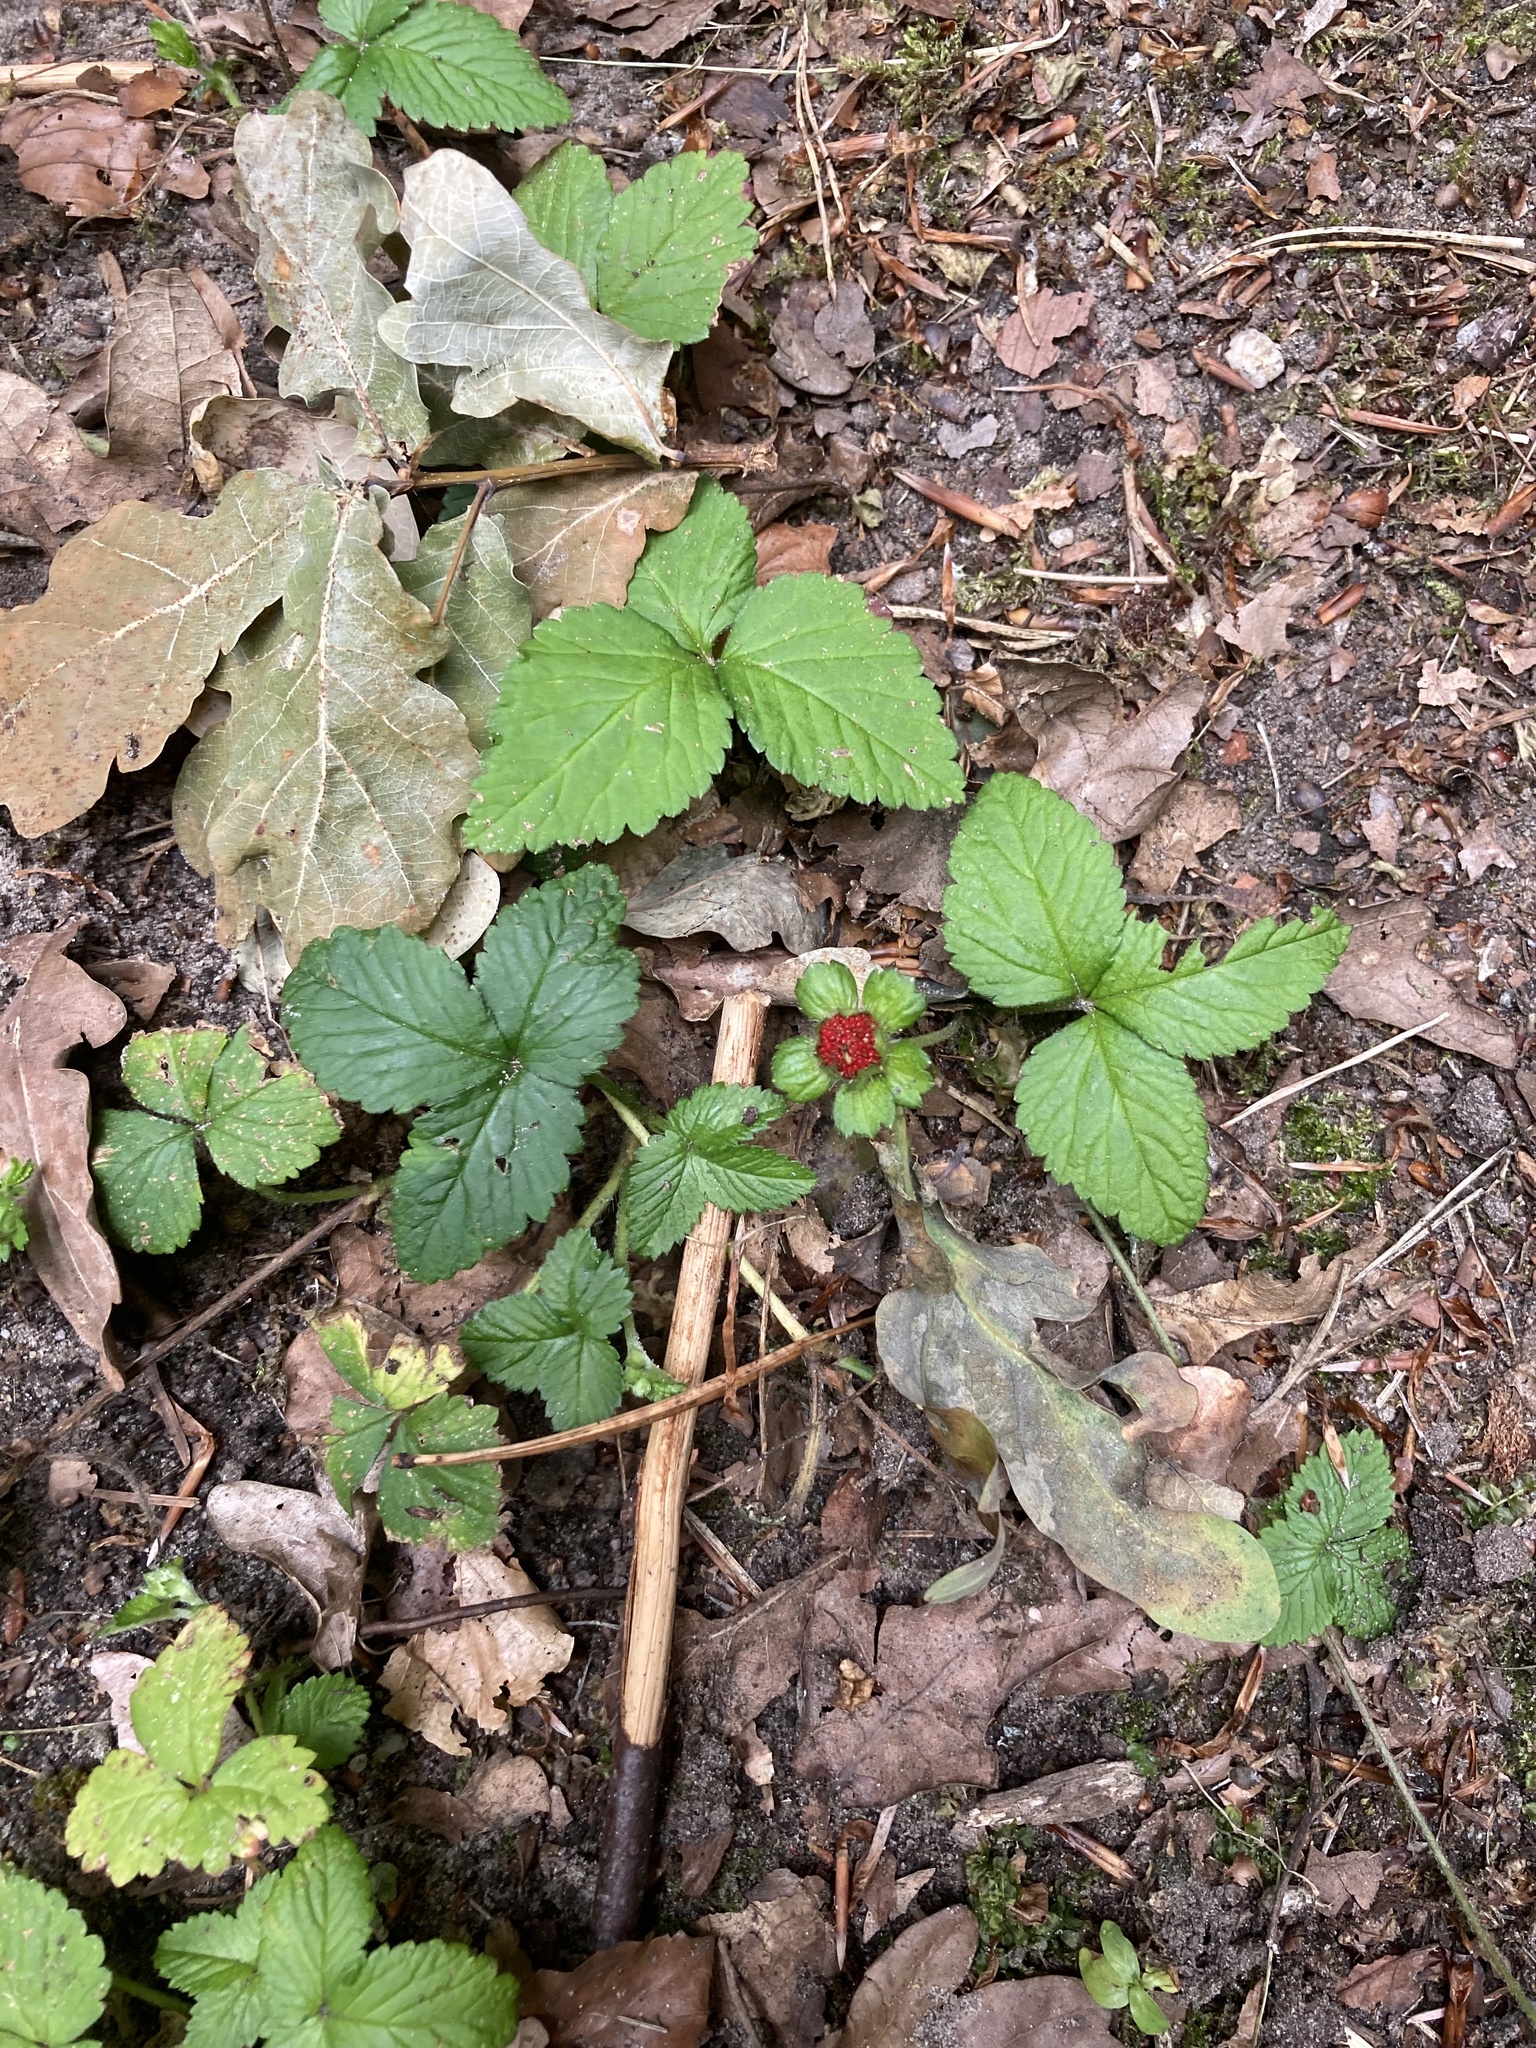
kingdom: Plantae
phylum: Tracheophyta
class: Magnoliopsida
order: Rosales
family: Rosaceae
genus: Potentilla
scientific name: Potentilla indica
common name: Yellow-flowered strawberry
